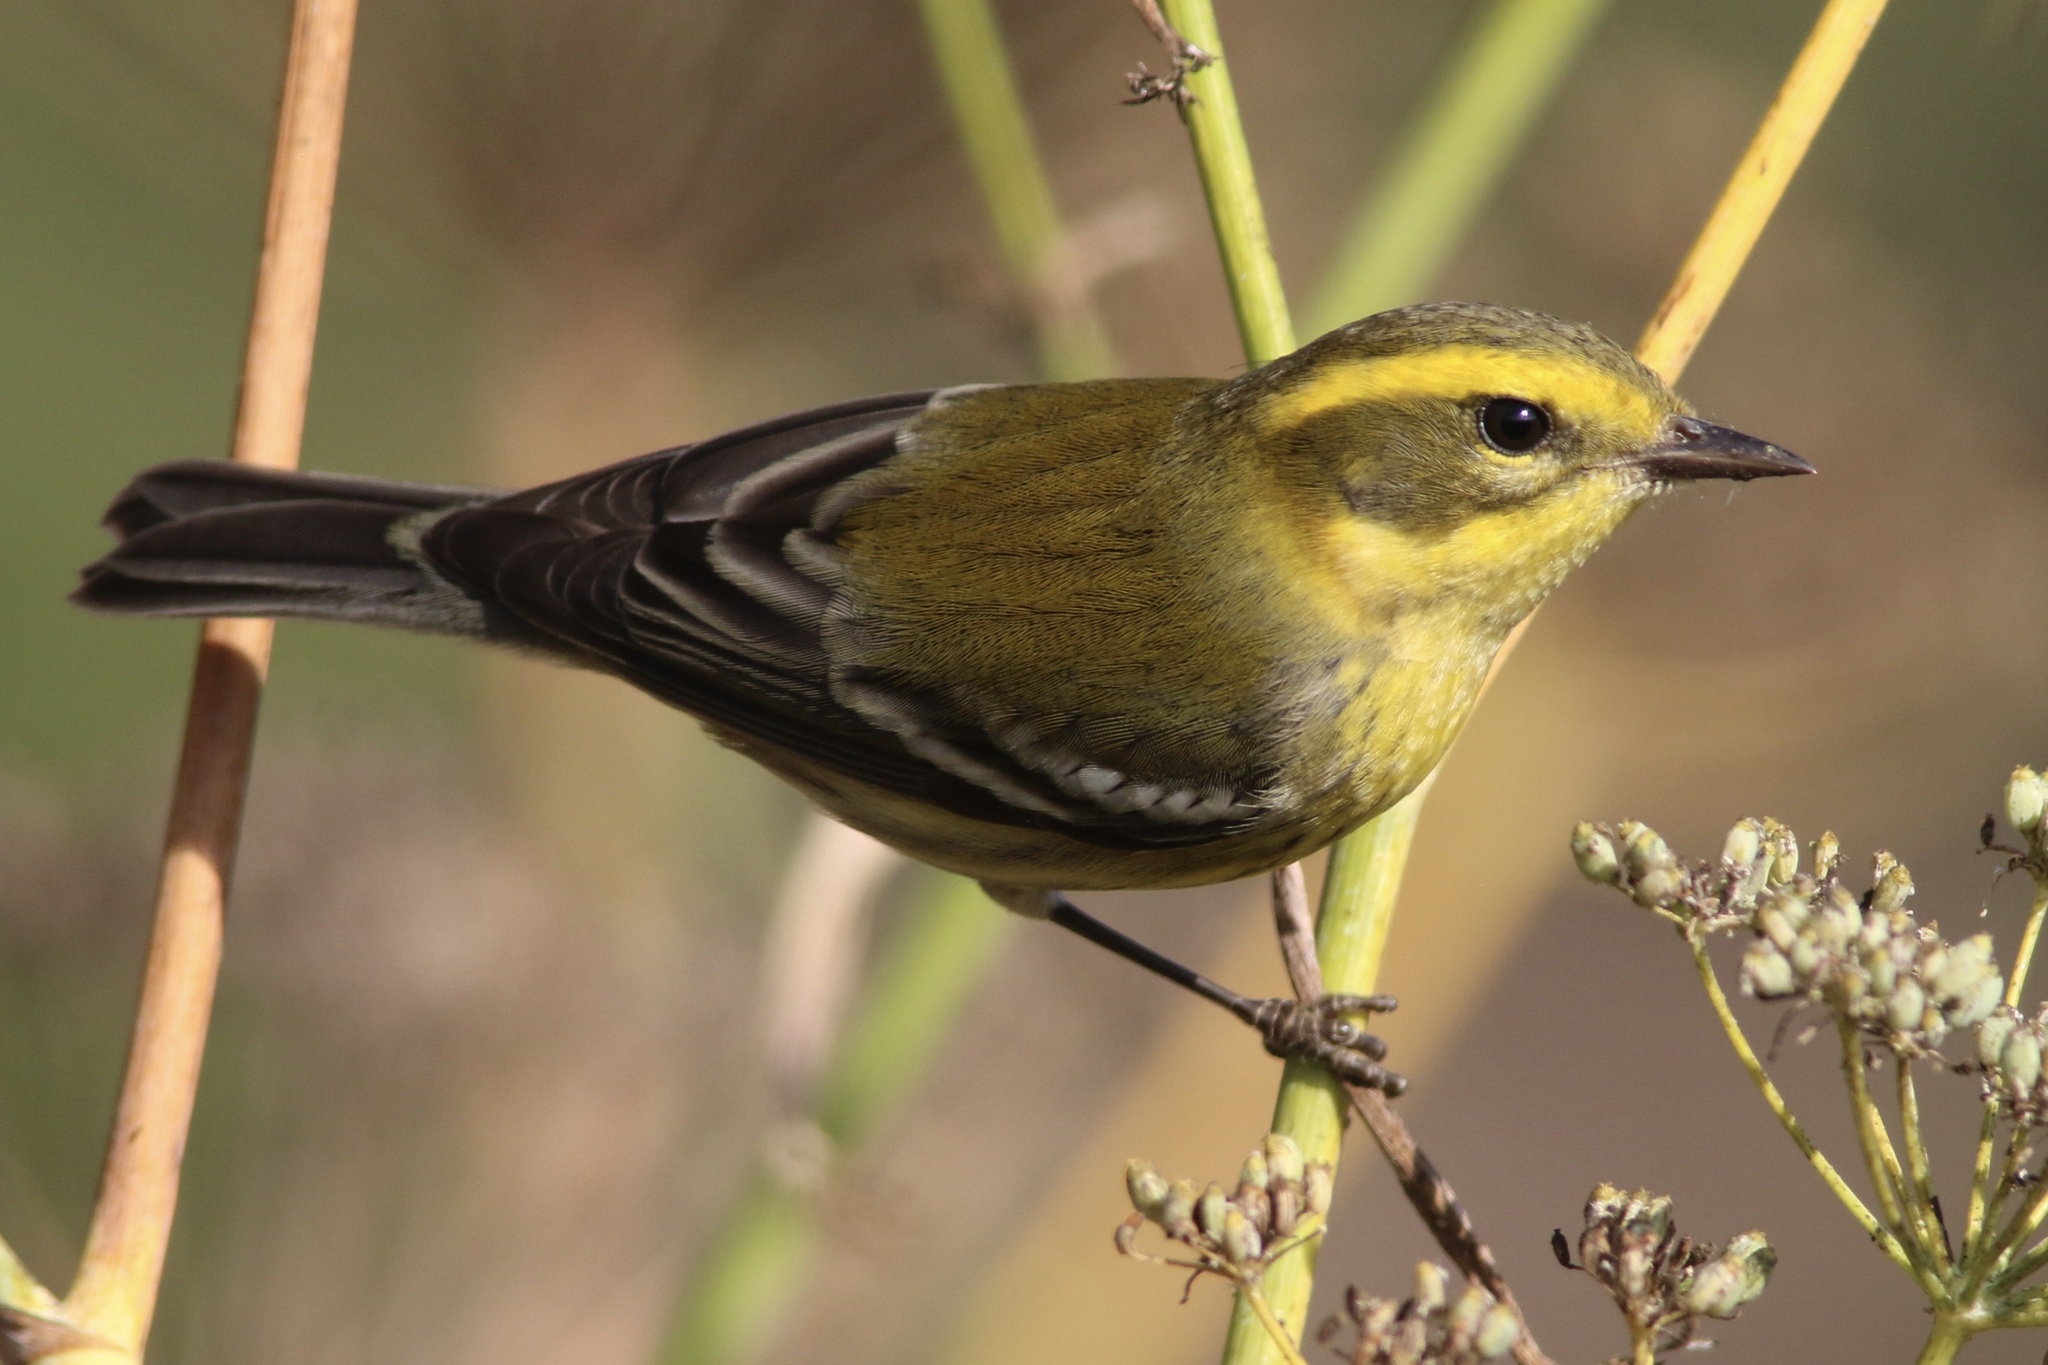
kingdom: Animalia
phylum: Chordata
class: Aves
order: Passeriformes
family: Parulidae
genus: Setophaga
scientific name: Setophaga townsendi
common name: Townsend's warbler
